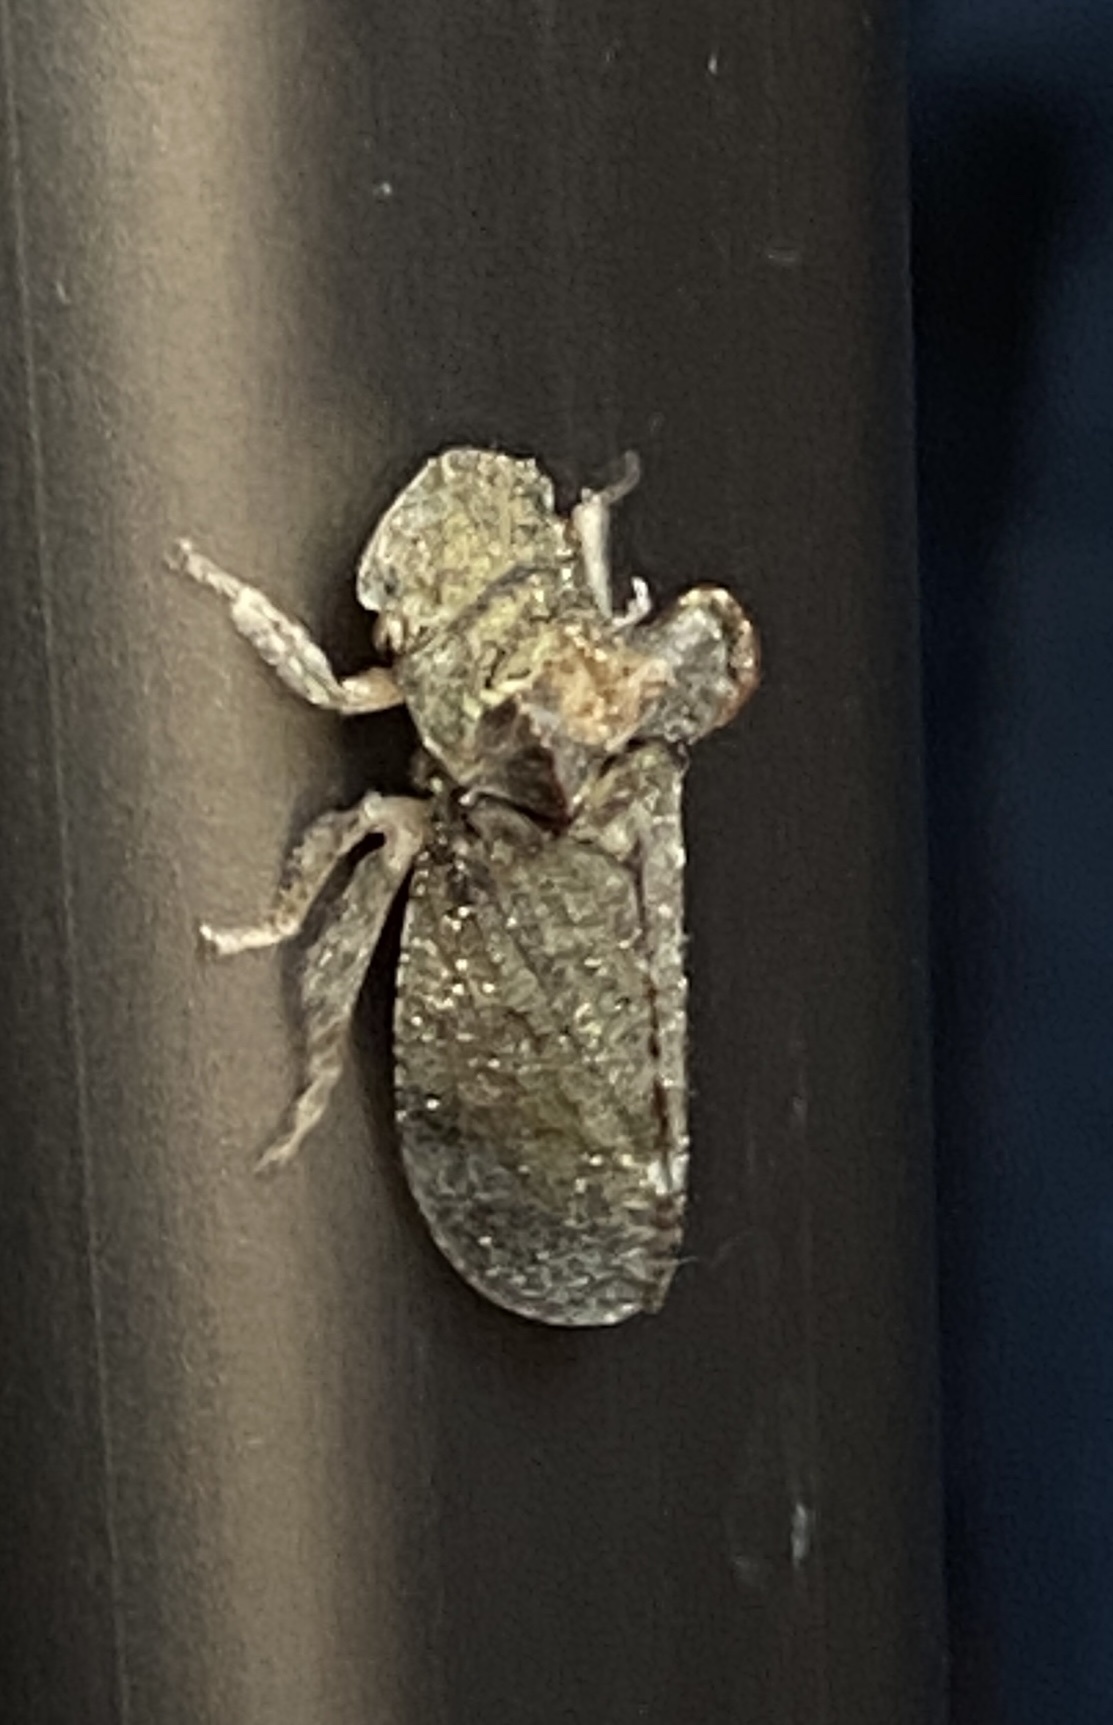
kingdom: Animalia
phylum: Arthropoda
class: Insecta
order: Hemiptera
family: Cicadellidae
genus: Ledra
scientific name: Ledra aurita
